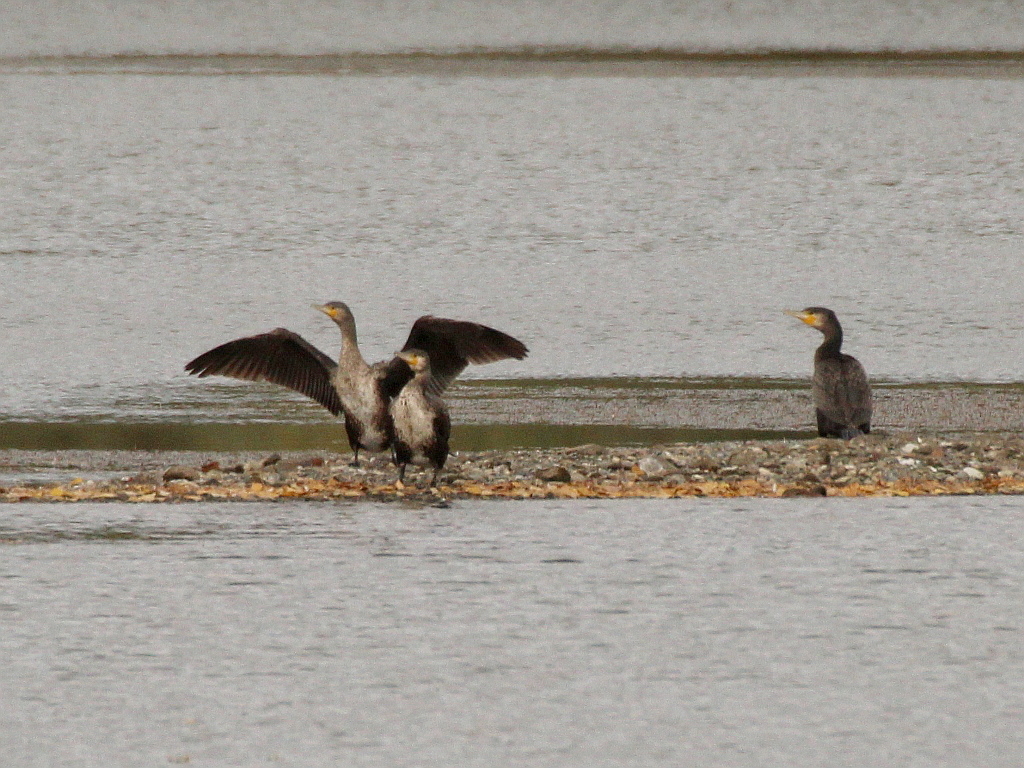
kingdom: Animalia
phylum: Chordata
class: Aves
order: Suliformes
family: Phalacrocoracidae
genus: Phalacrocorax
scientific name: Phalacrocorax carbo
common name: Great cormorant
